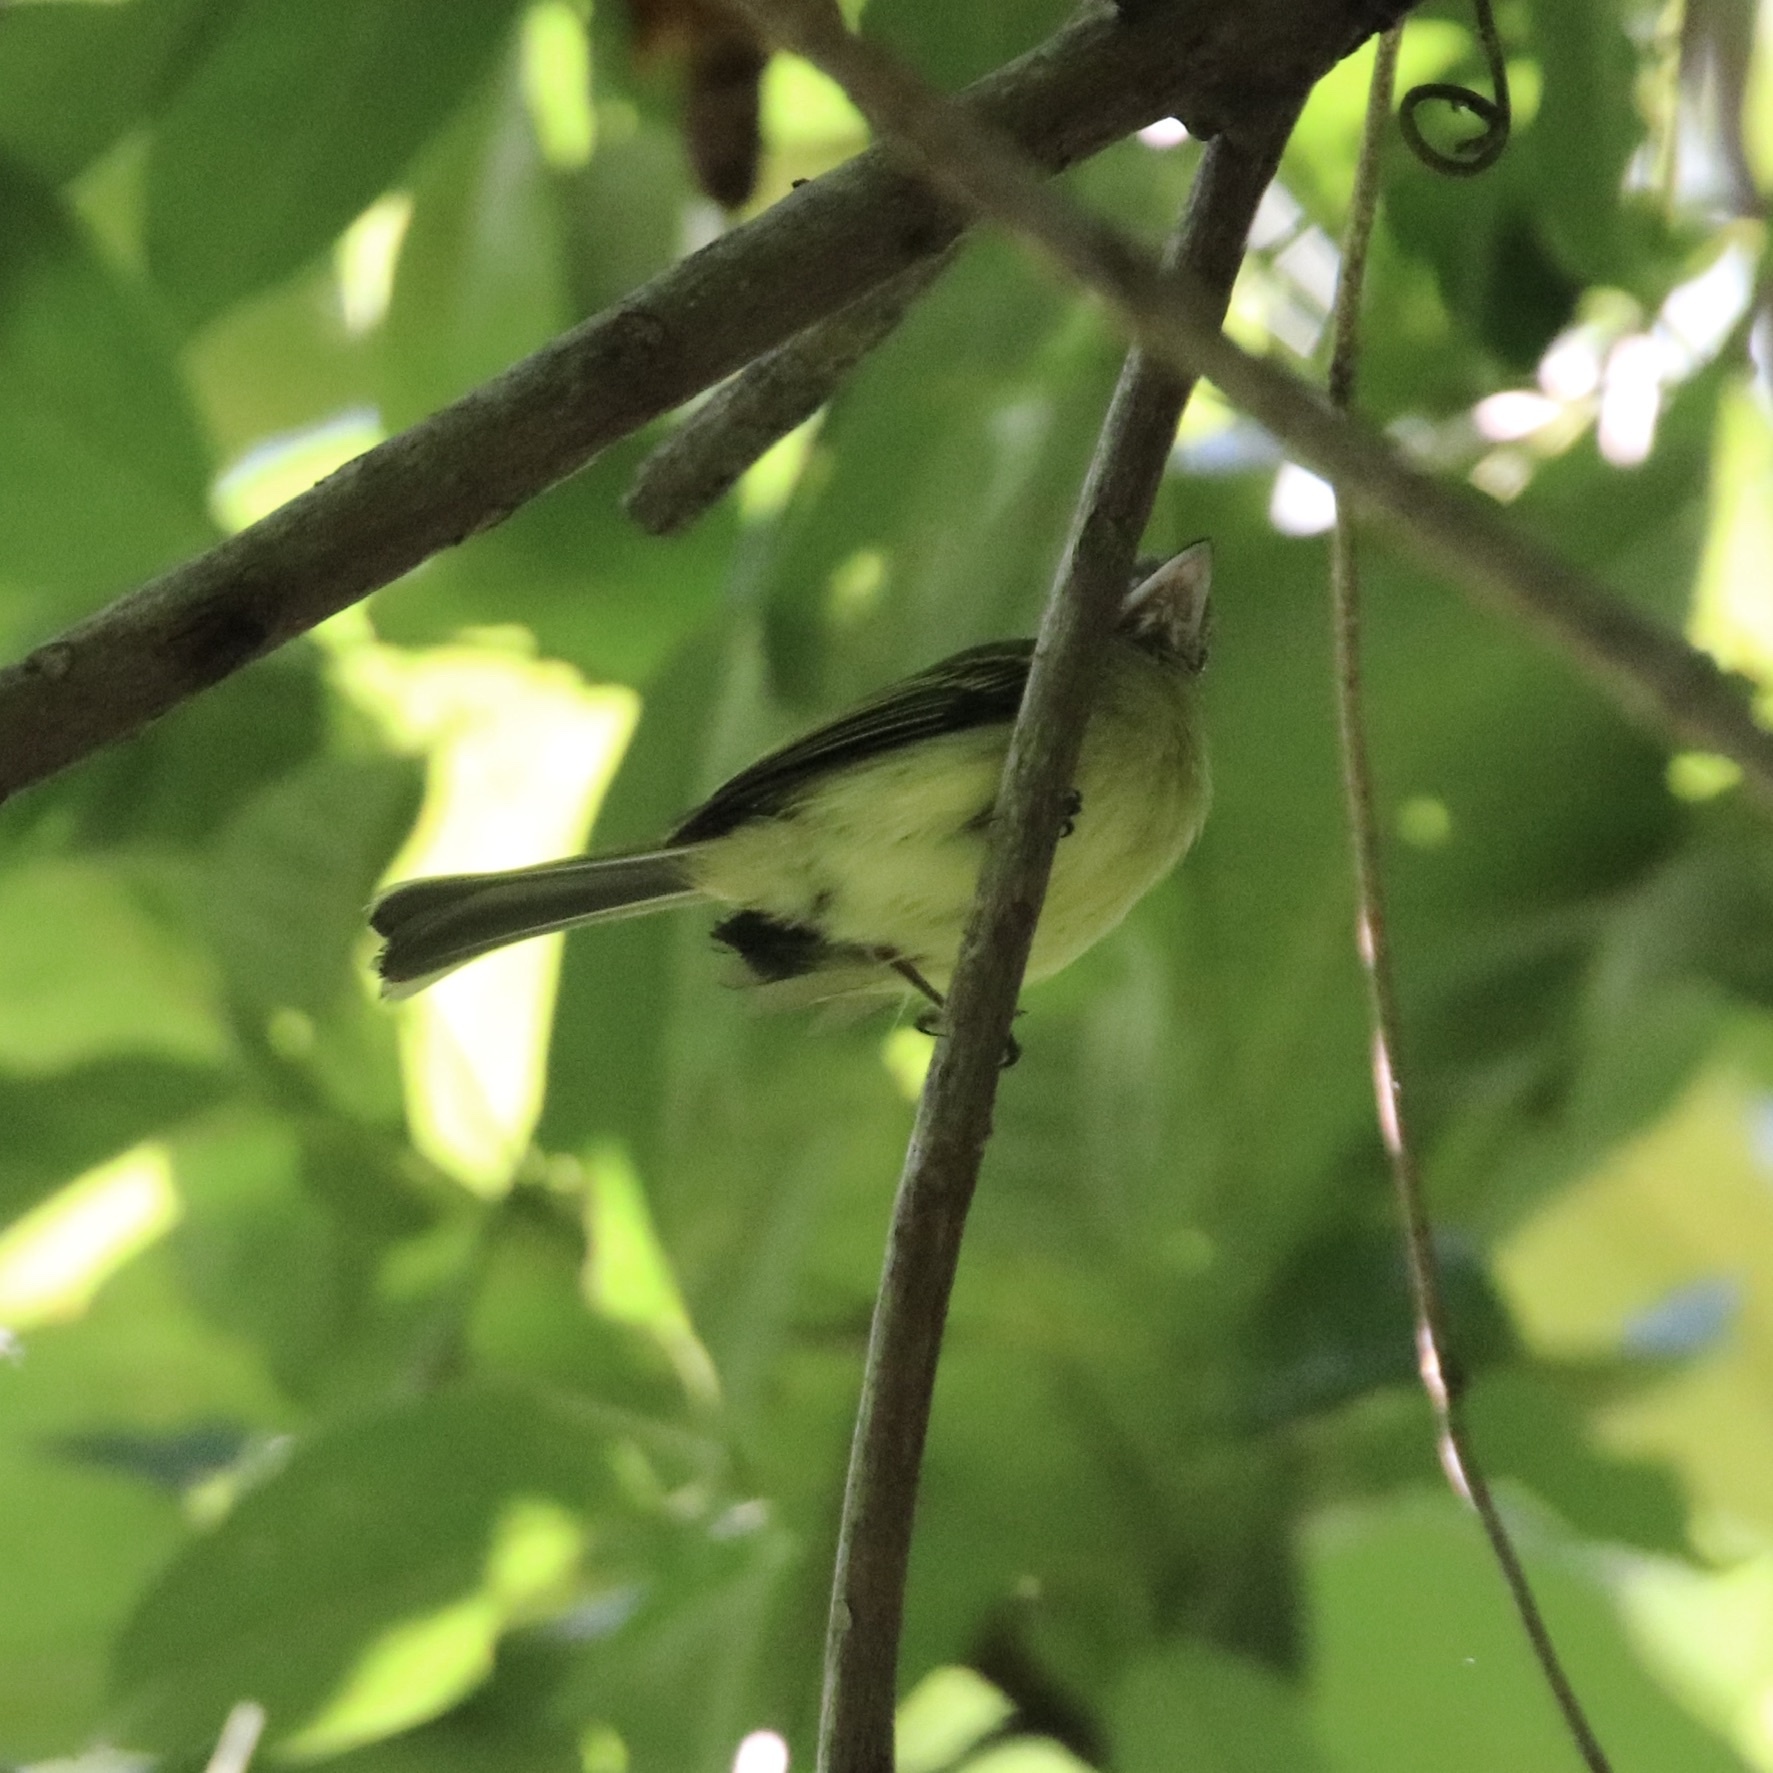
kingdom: Animalia
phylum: Chordata
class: Aves
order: Passeriformes
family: Tyrannidae
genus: Tolmomyias
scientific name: Tolmomyias sulphurescens
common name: Yellow-olive flycatcher
